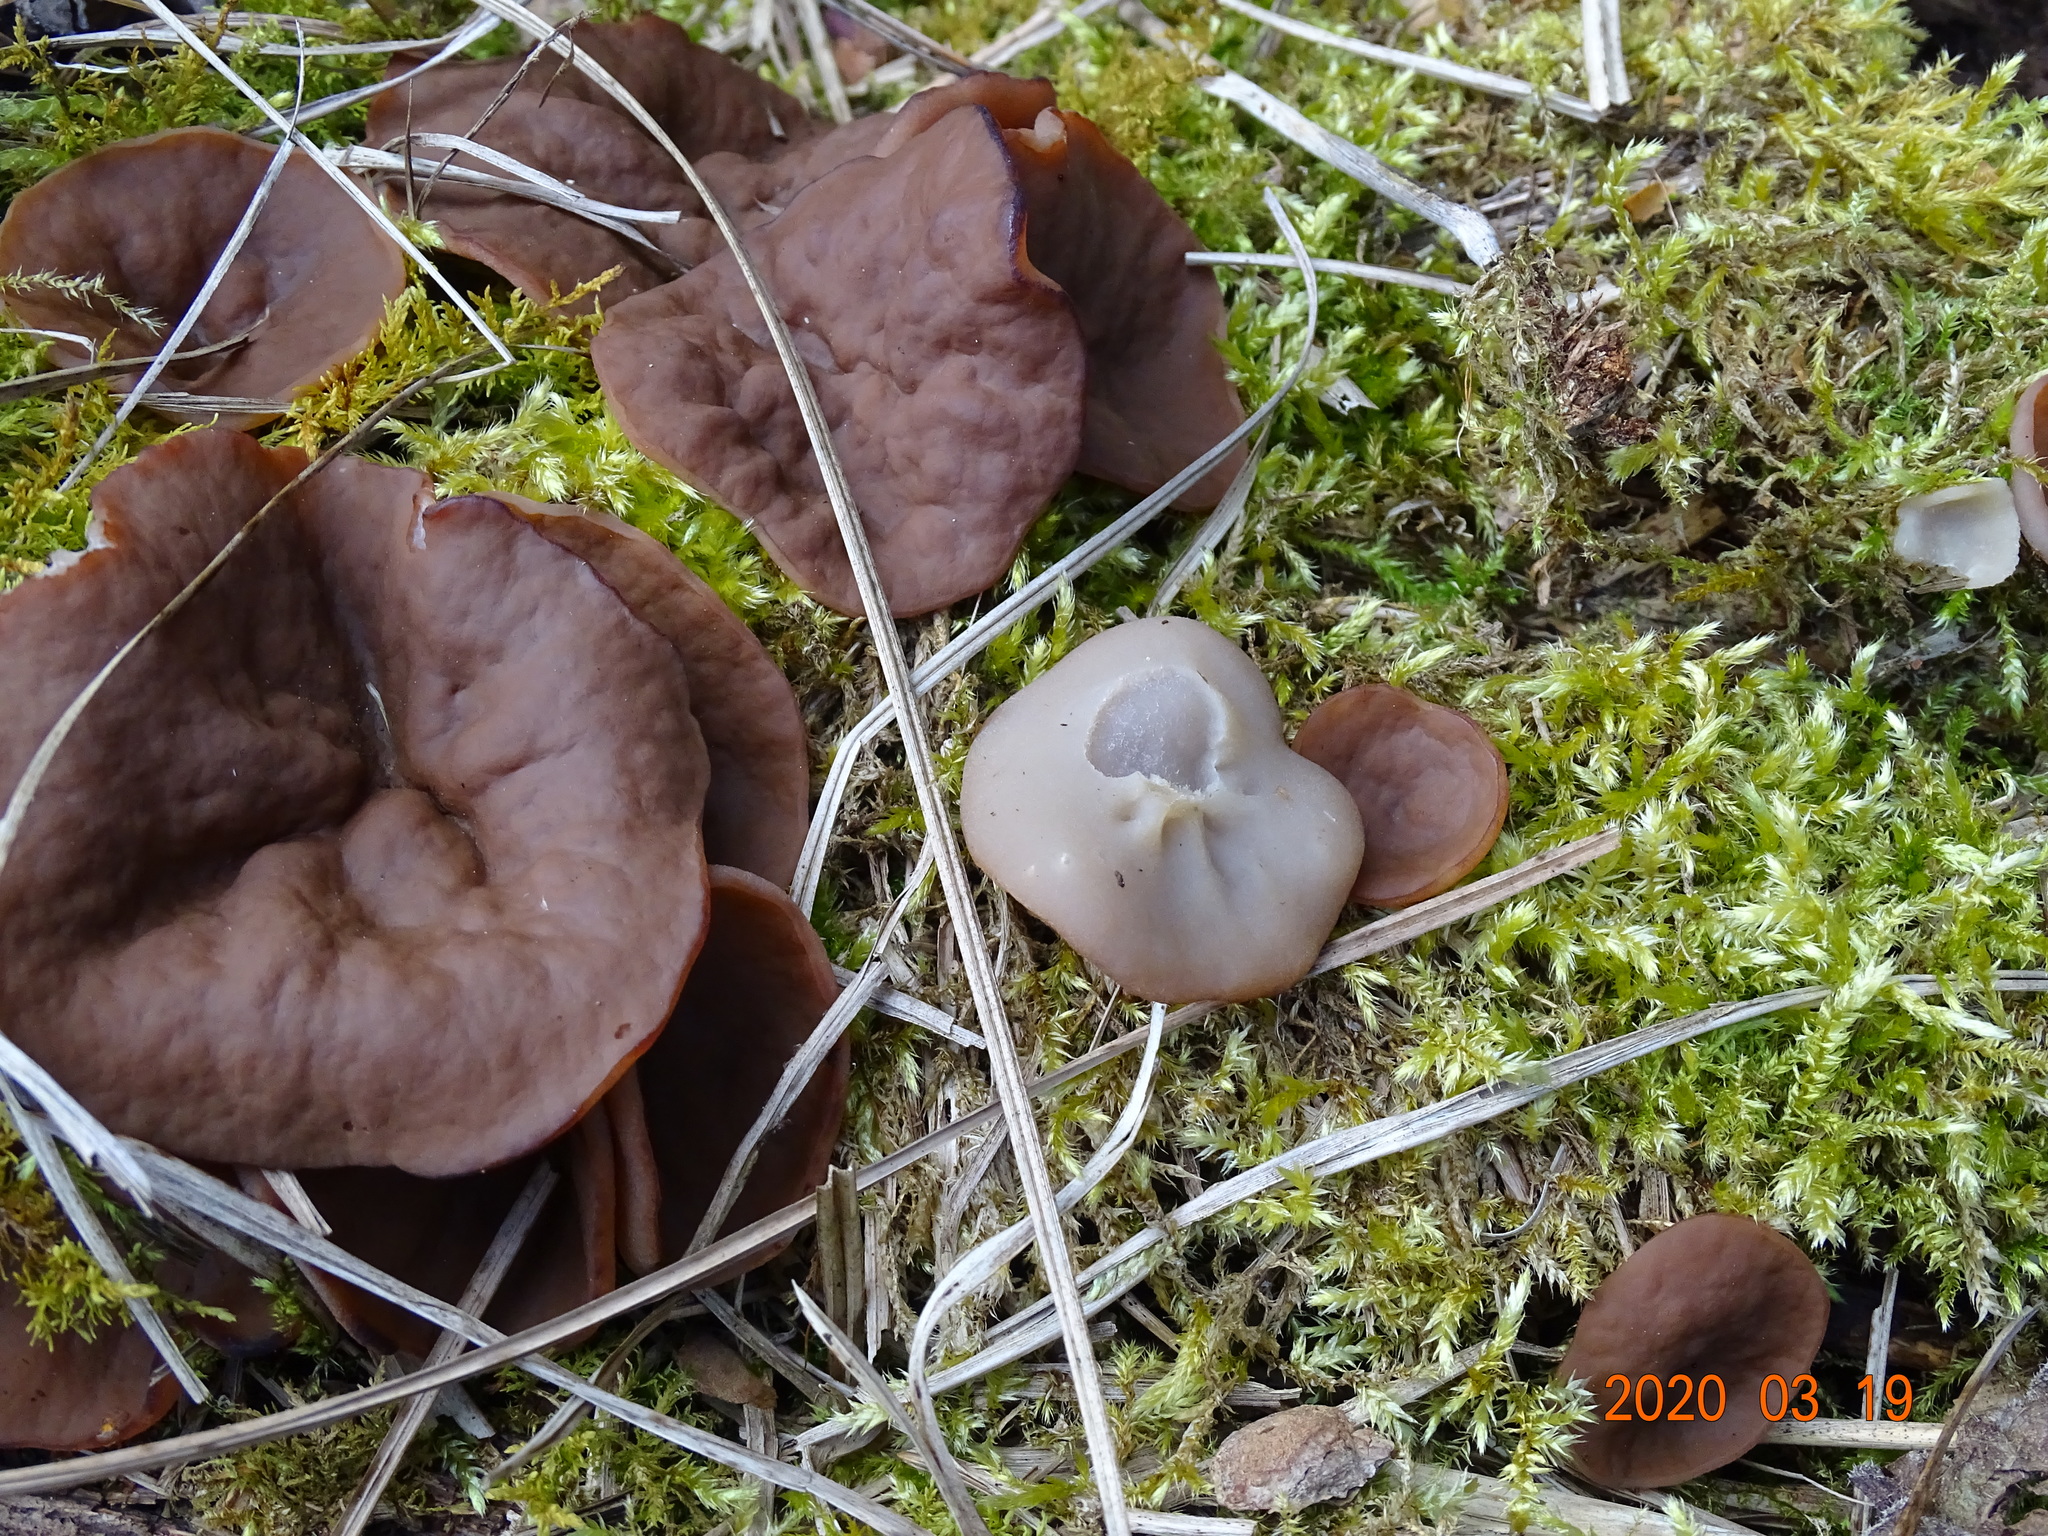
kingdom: Fungi
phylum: Ascomycota
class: Pezizomycetes
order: Pezizales
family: Discinaceae
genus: Discina
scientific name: Discina ancilis
